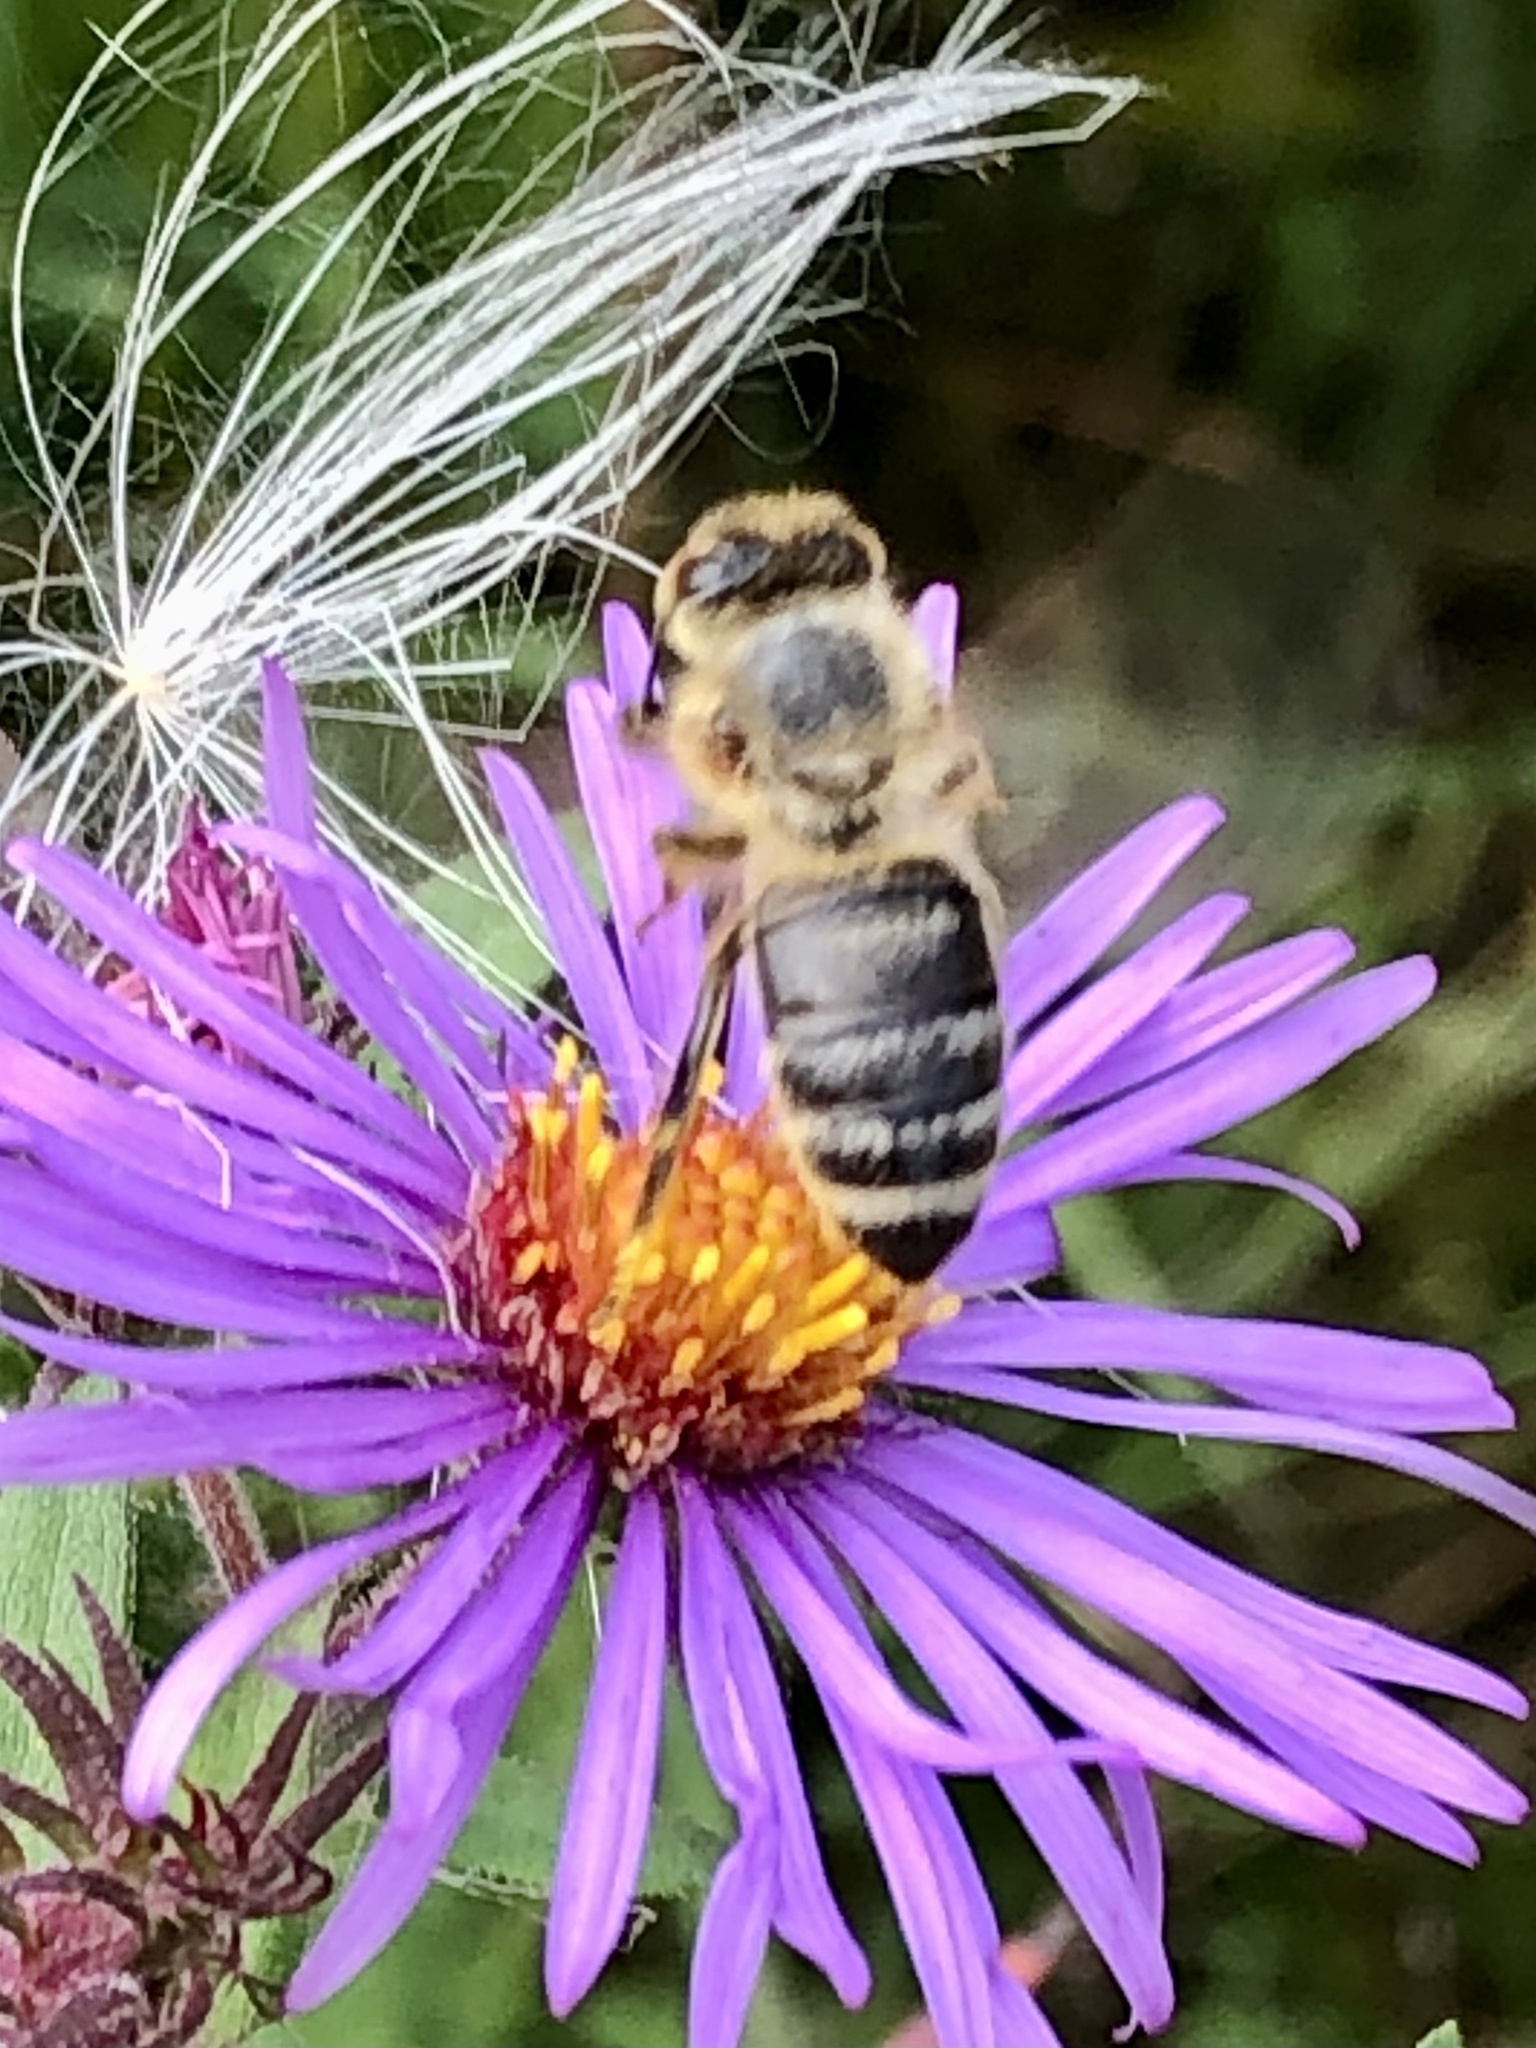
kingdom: Animalia
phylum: Arthropoda
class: Insecta
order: Hymenoptera
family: Apidae
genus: Apis
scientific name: Apis mellifera
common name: Honey bee
